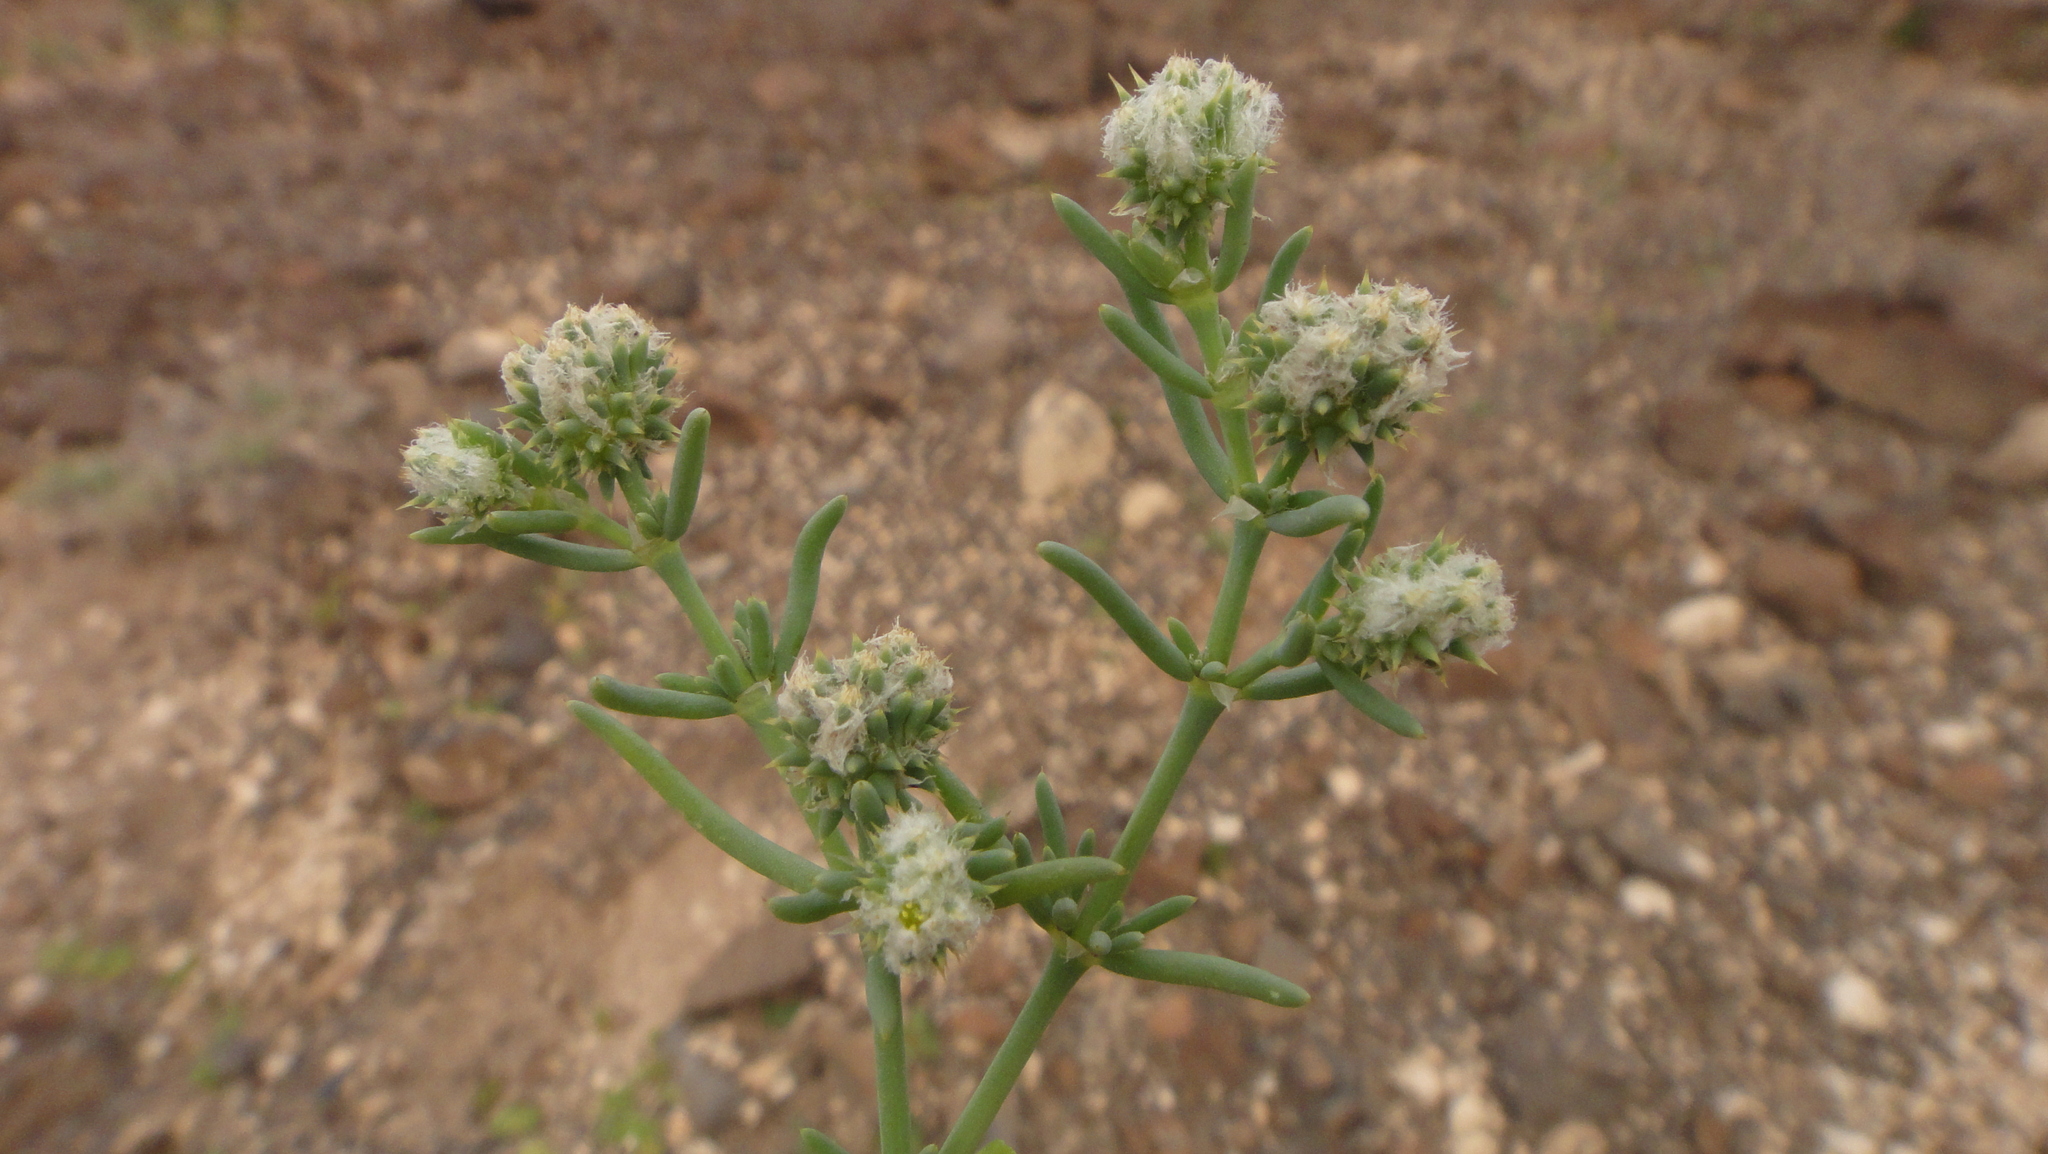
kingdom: Plantae
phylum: Tracheophyta
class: Magnoliopsida
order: Caryophyllales
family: Caryophyllaceae
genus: Gymnocarpos
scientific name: Gymnocarpos sclerocephalus
